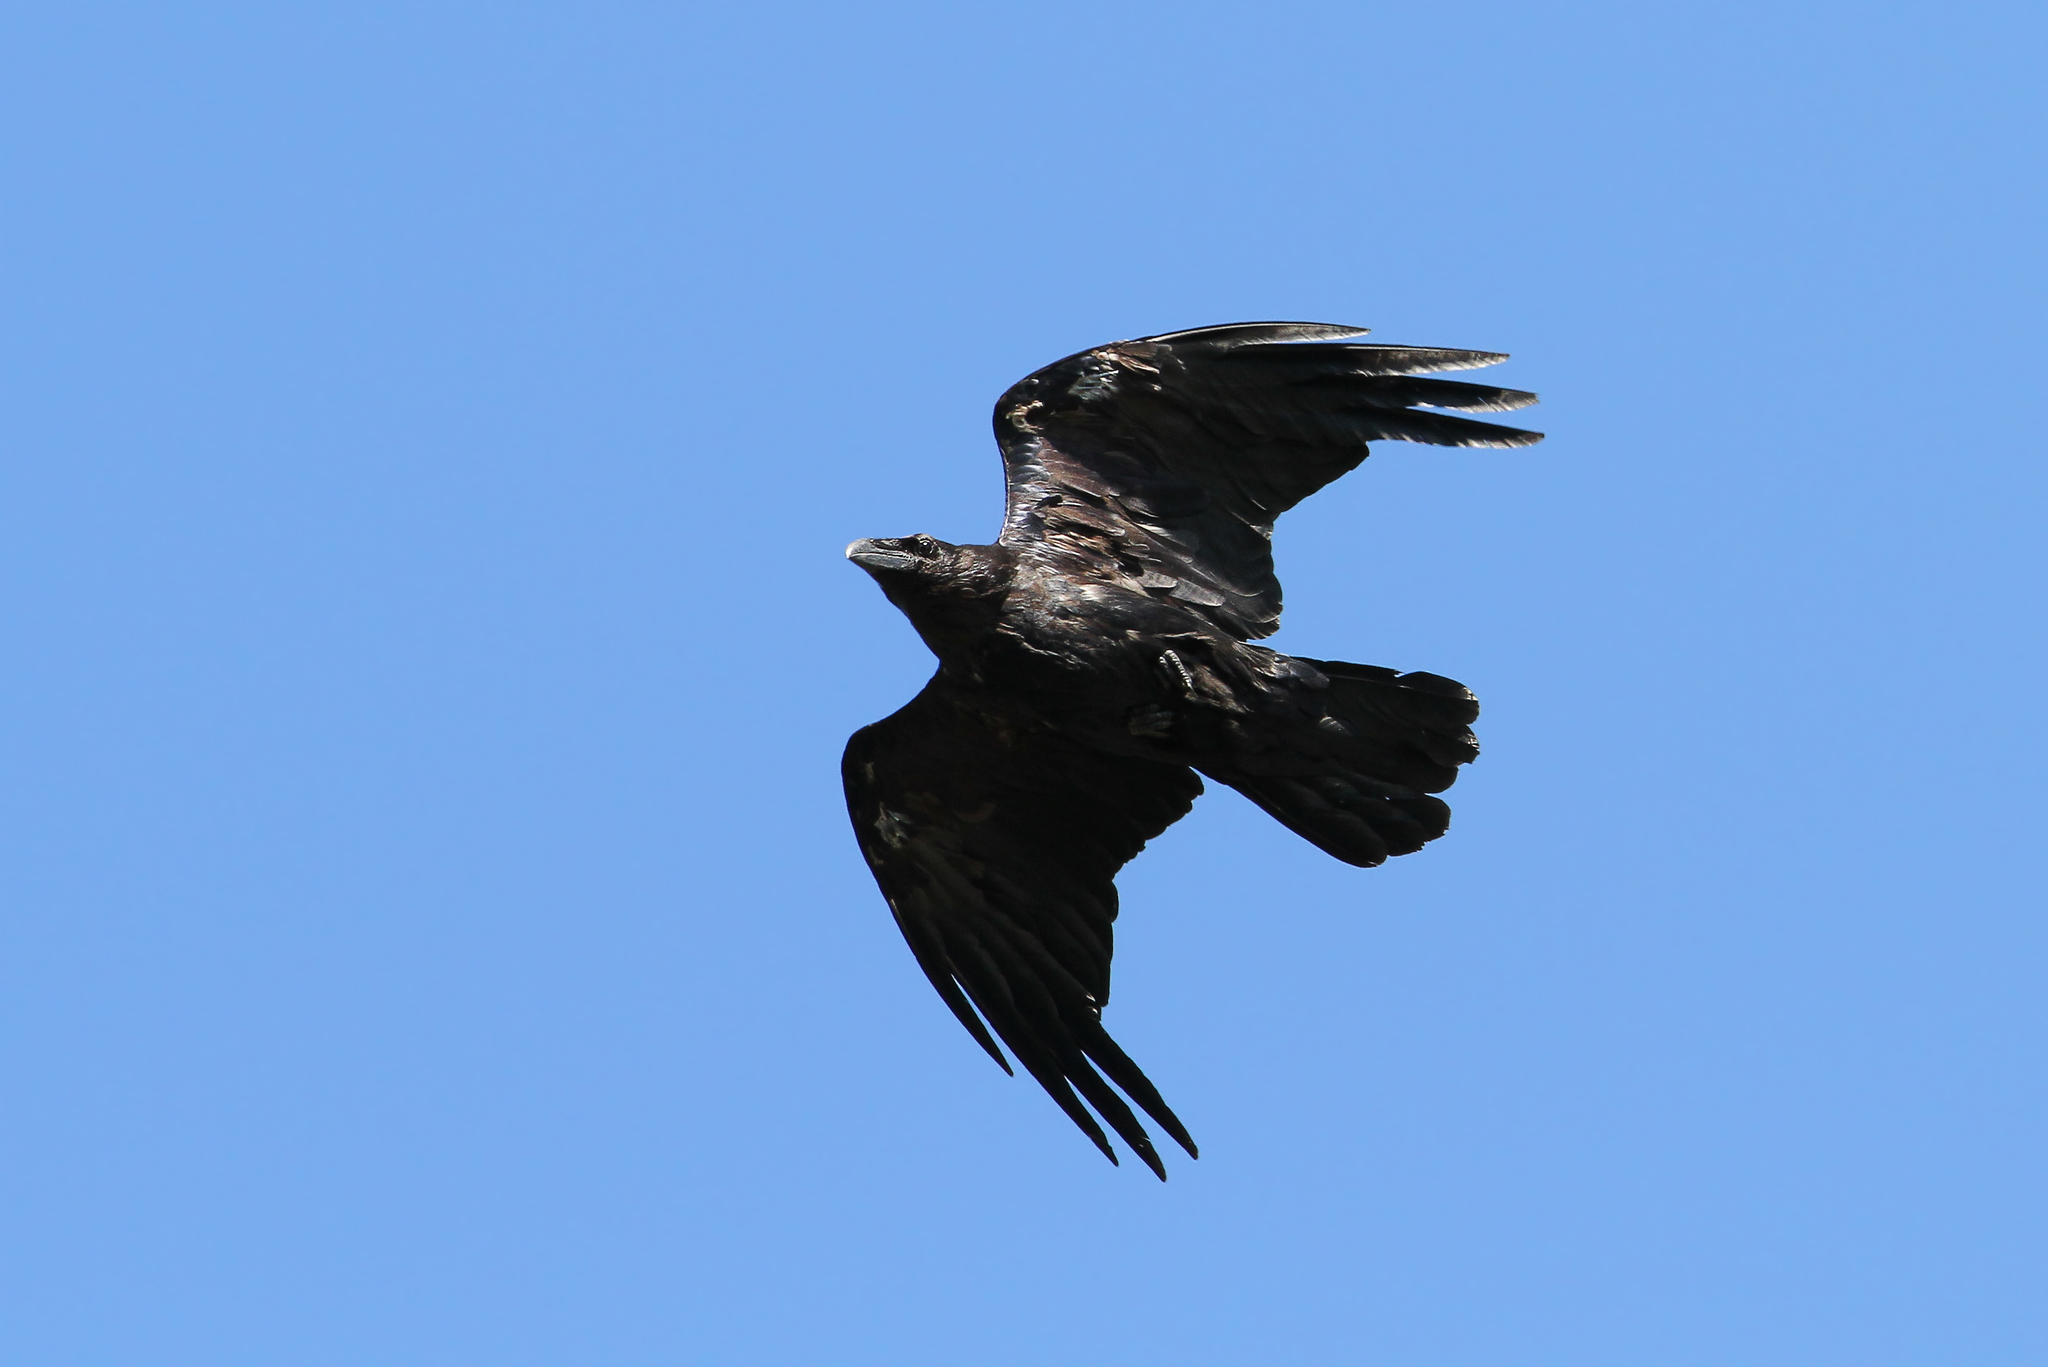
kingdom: Animalia
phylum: Chordata
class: Aves
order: Passeriformes
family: Corvidae
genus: Corvus
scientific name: Corvus corax
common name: Common raven
